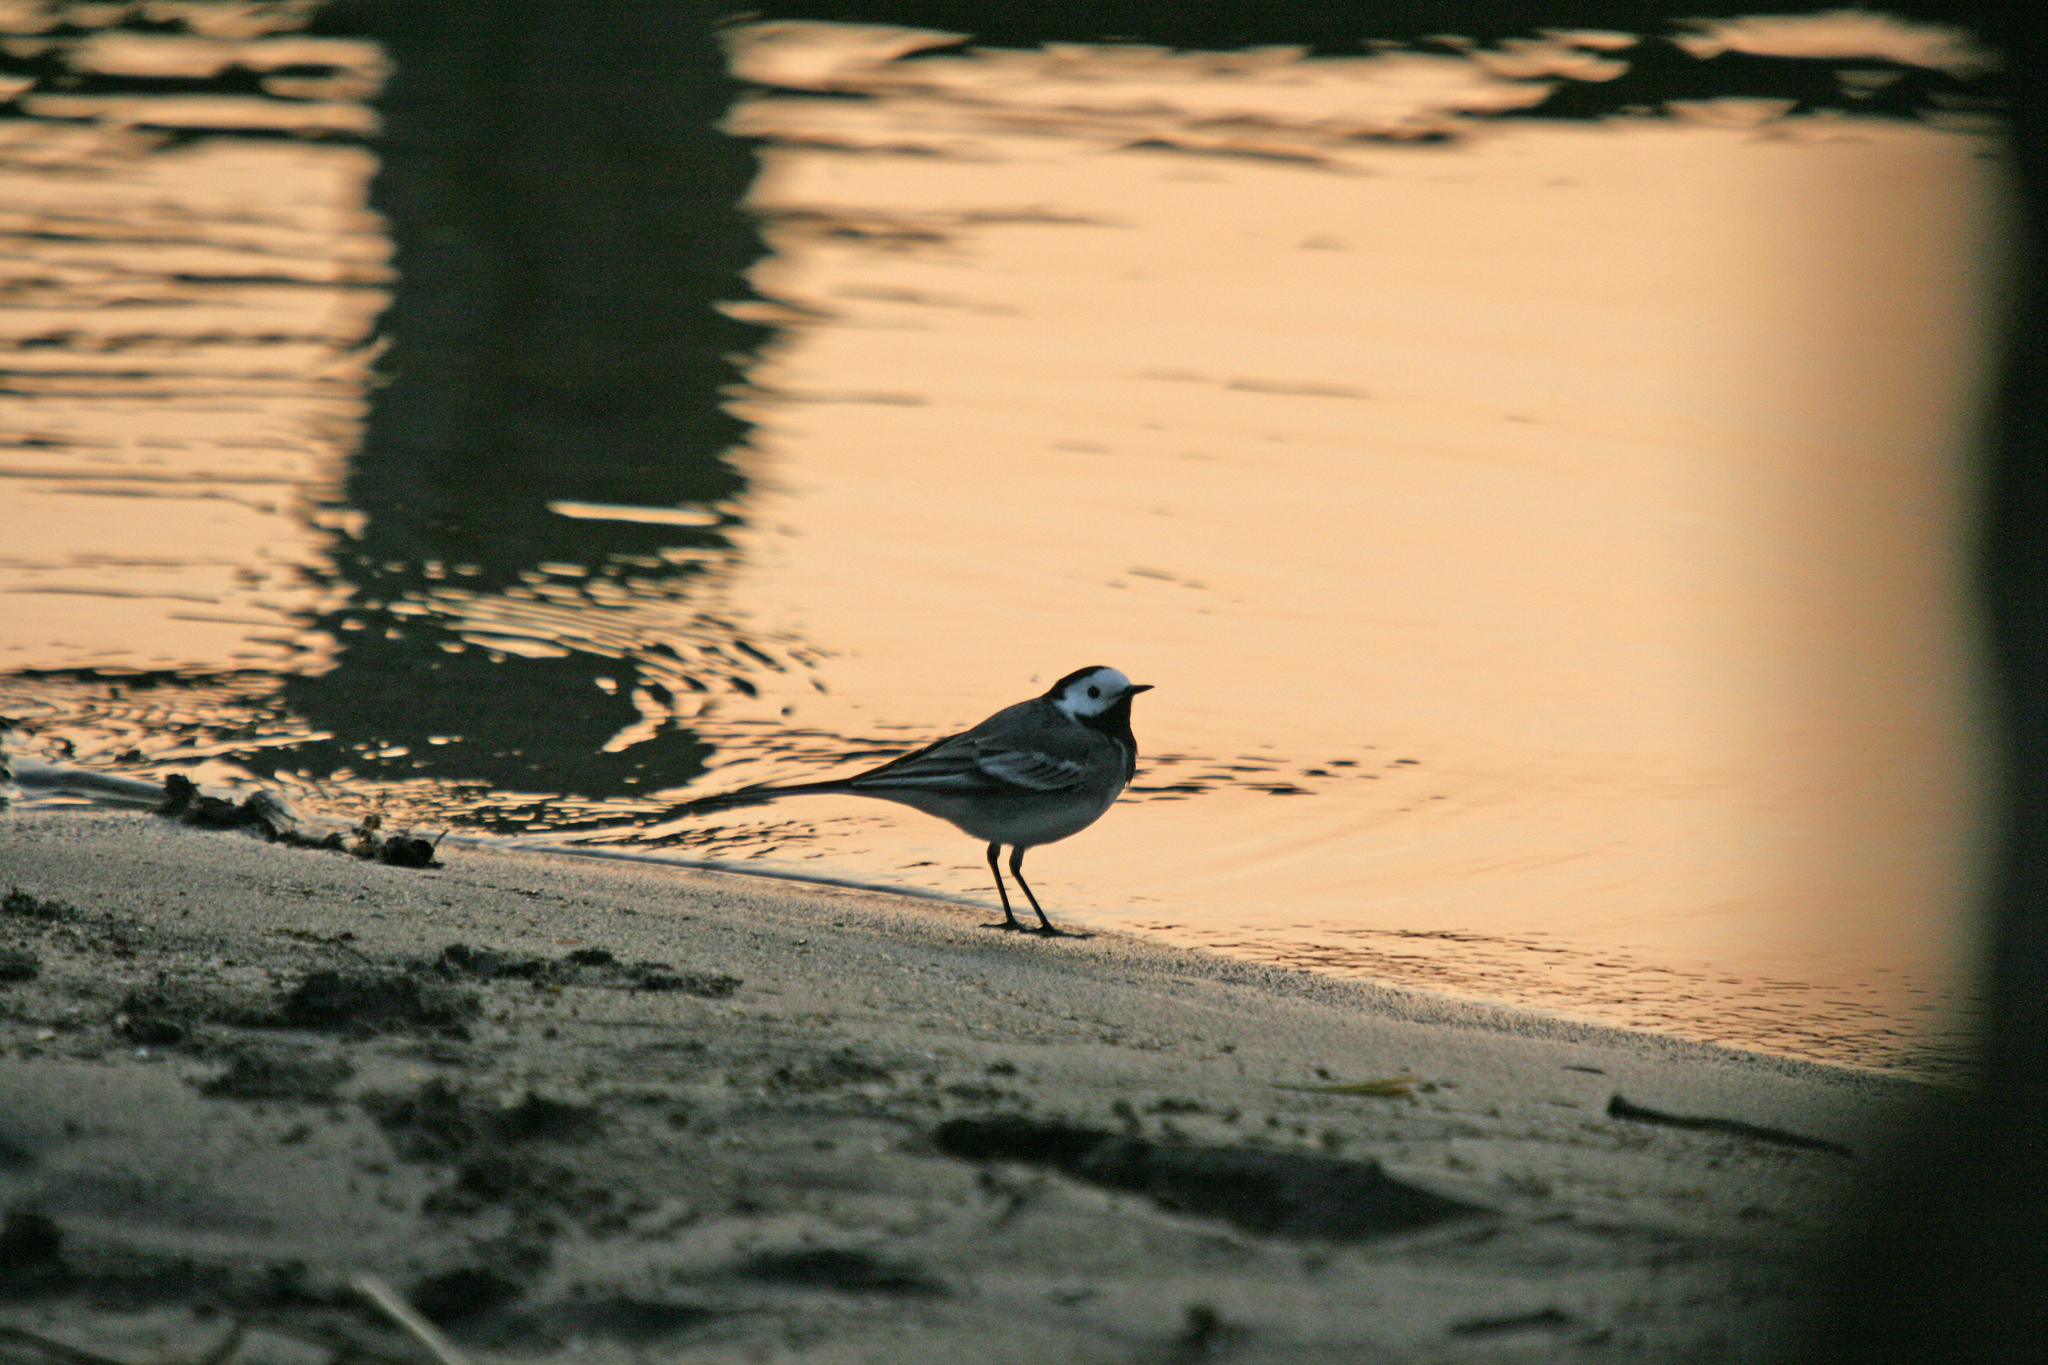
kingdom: Animalia
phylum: Chordata
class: Aves
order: Passeriformes
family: Motacillidae
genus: Motacilla
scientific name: Motacilla alba
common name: White wagtail
